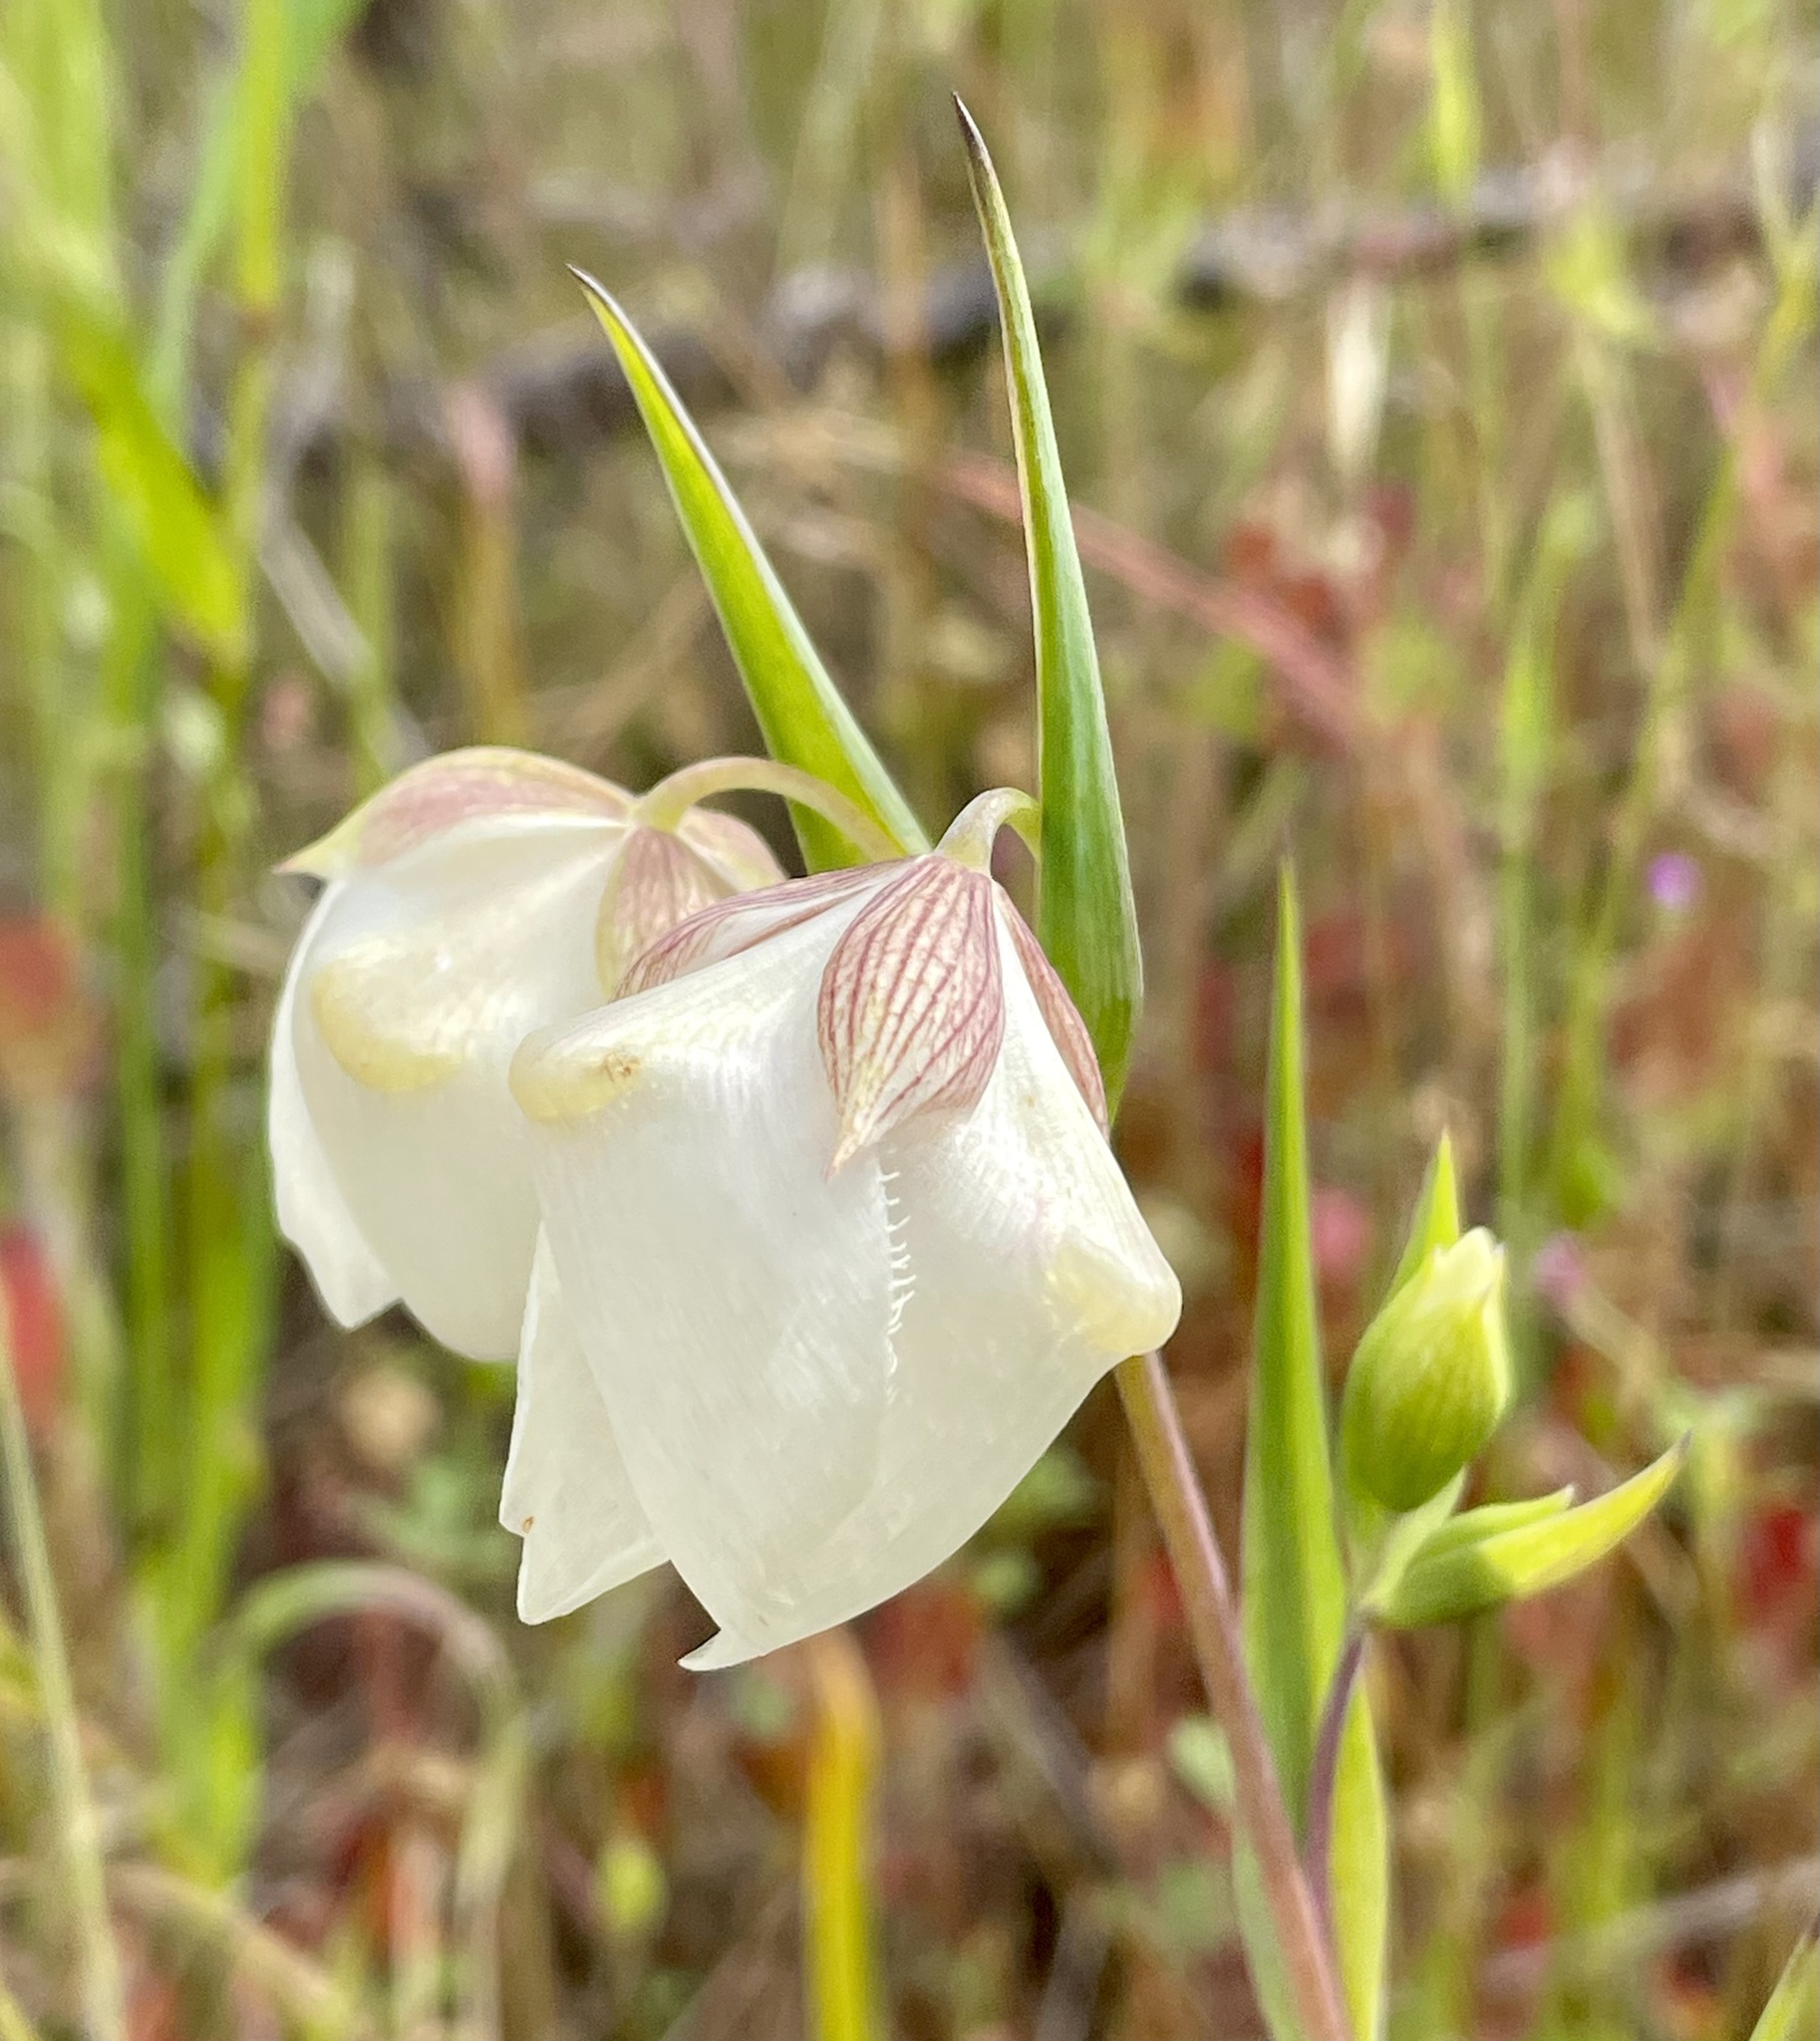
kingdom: Plantae
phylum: Tracheophyta
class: Liliopsida
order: Liliales
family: Liliaceae
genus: Calochortus
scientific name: Calochortus albus
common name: Fairy-lantern
